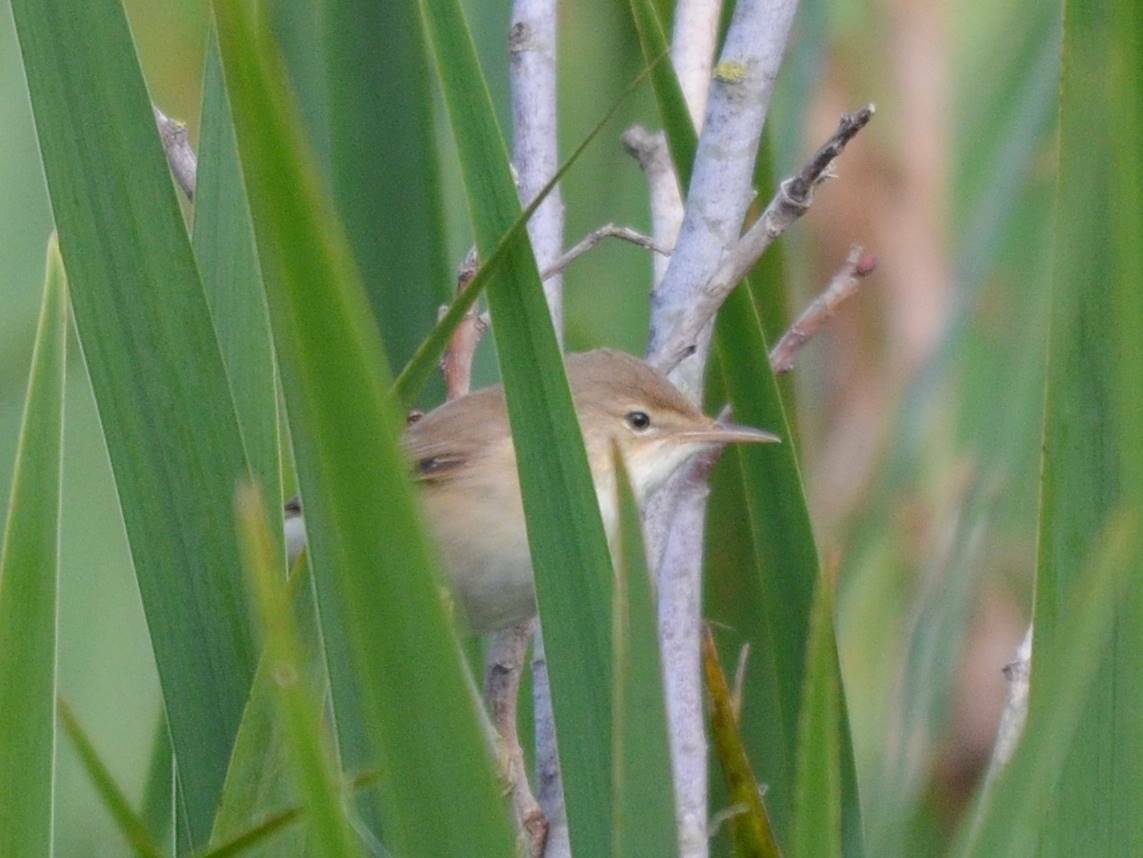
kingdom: Animalia
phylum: Chordata
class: Aves
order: Passeriformes
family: Acrocephalidae
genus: Acrocephalus
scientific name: Acrocephalus scirpaceus
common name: Eurasian reed warbler
